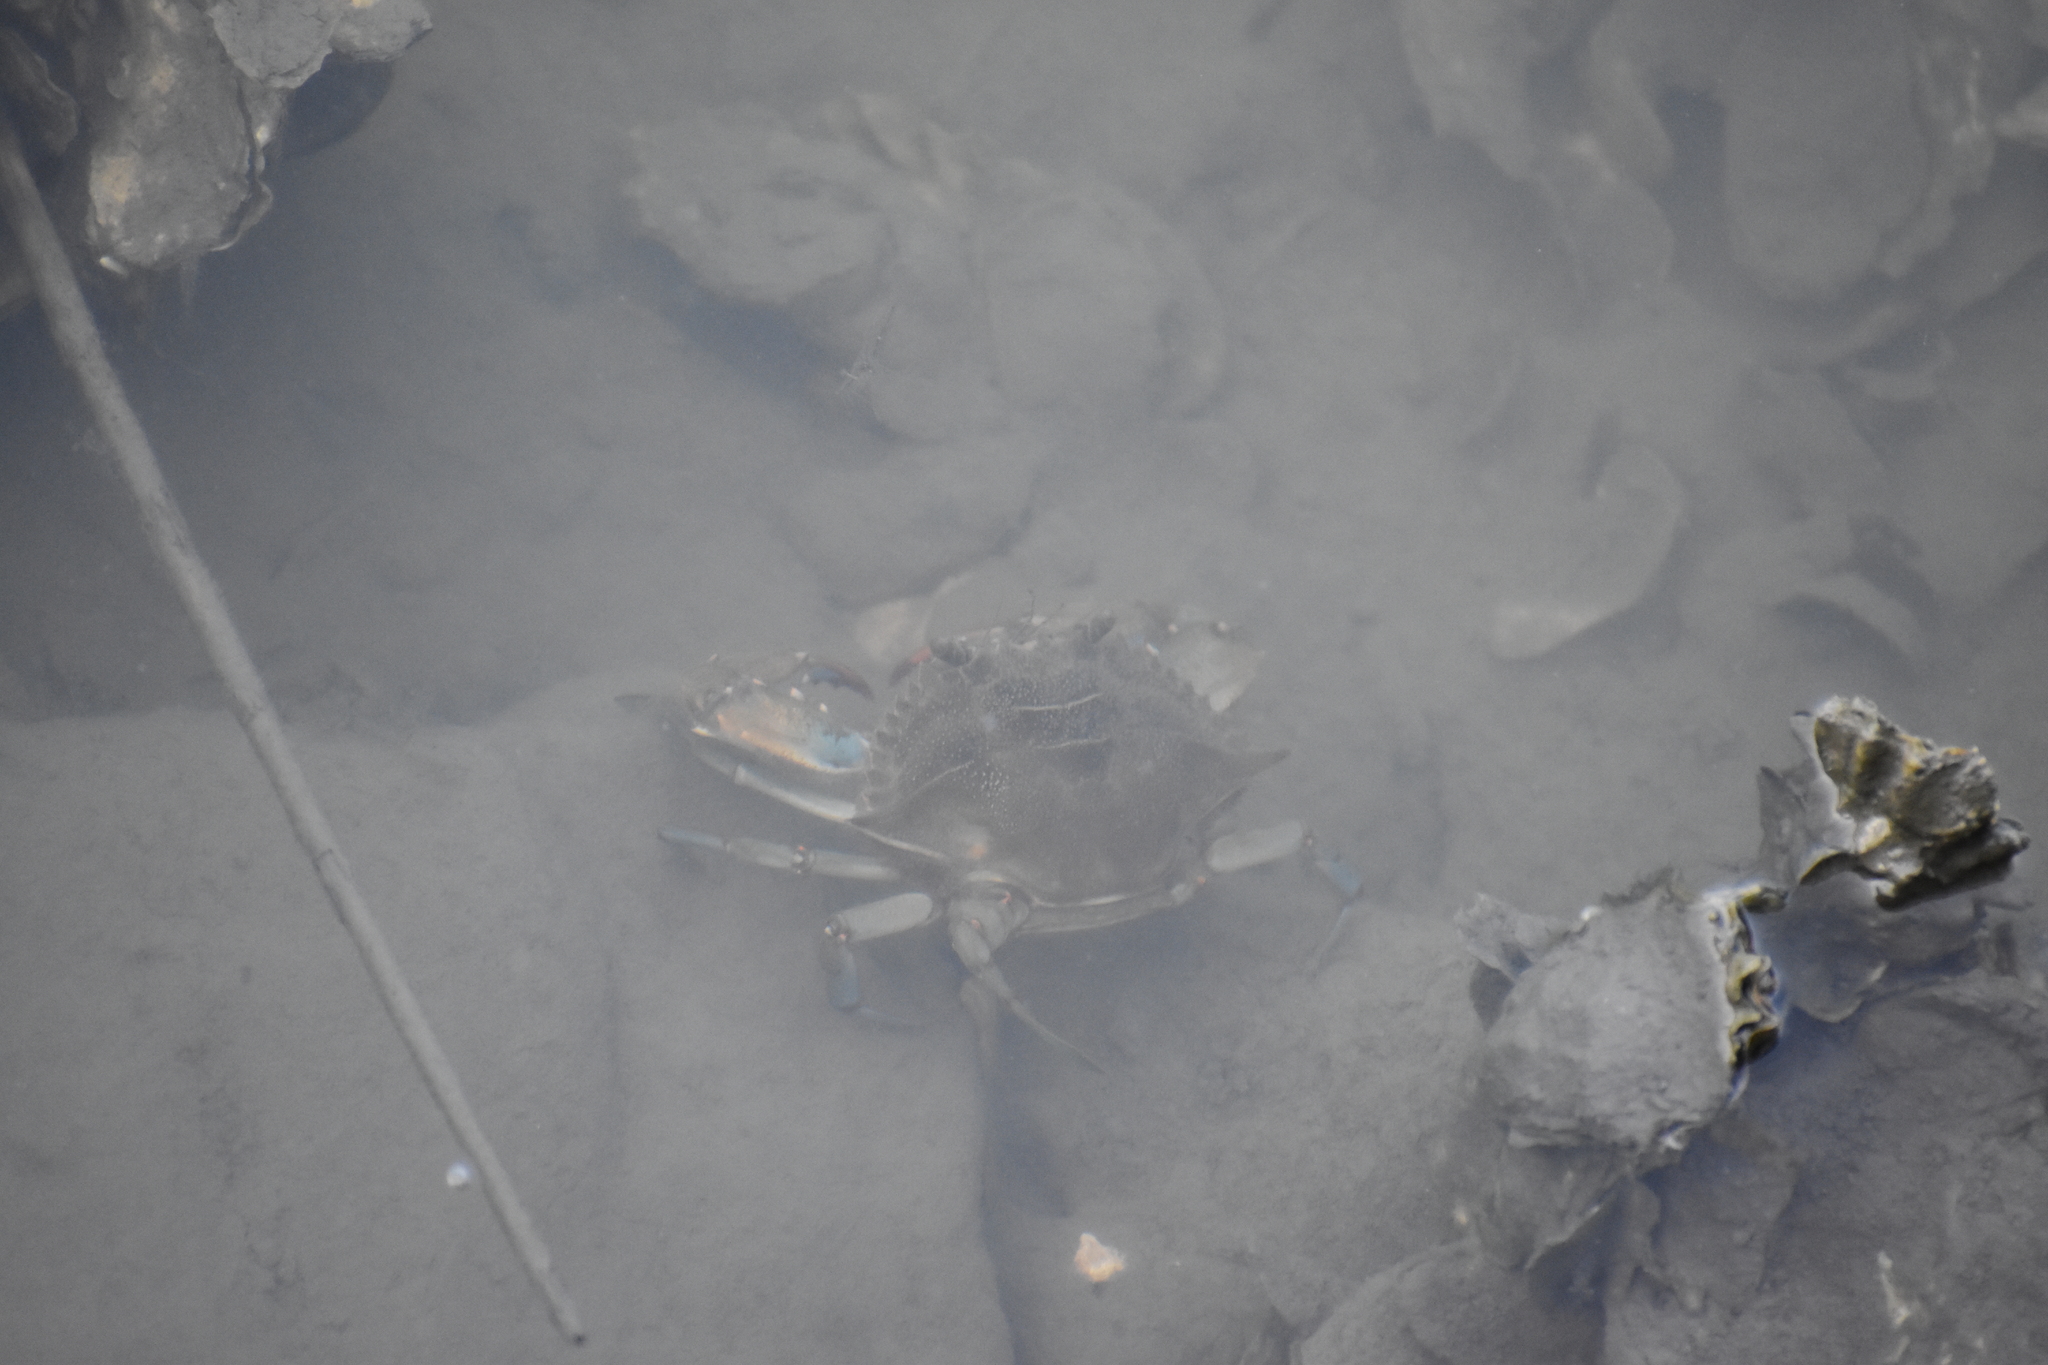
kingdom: Animalia
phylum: Arthropoda
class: Malacostraca
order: Decapoda
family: Portunidae
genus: Callinectes
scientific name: Callinectes sapidus
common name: Blue crab
